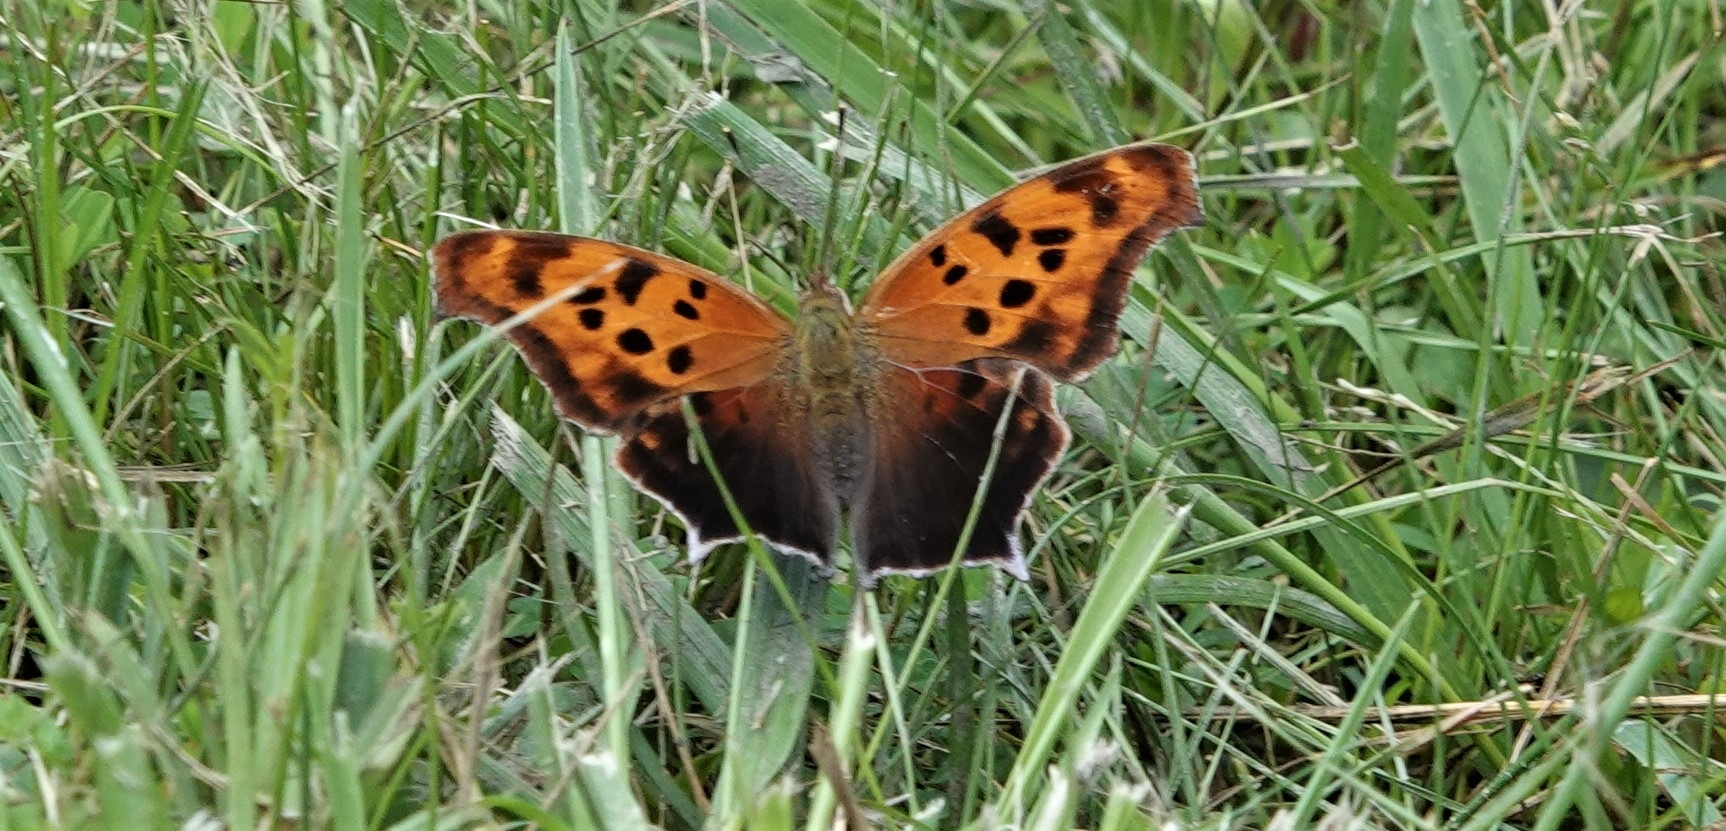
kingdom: Animalia
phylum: Arthropoda
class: Insecta
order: Lepidoptera
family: Nymphalidae
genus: Polygonia
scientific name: Polygonia interrogationis
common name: Question mark
